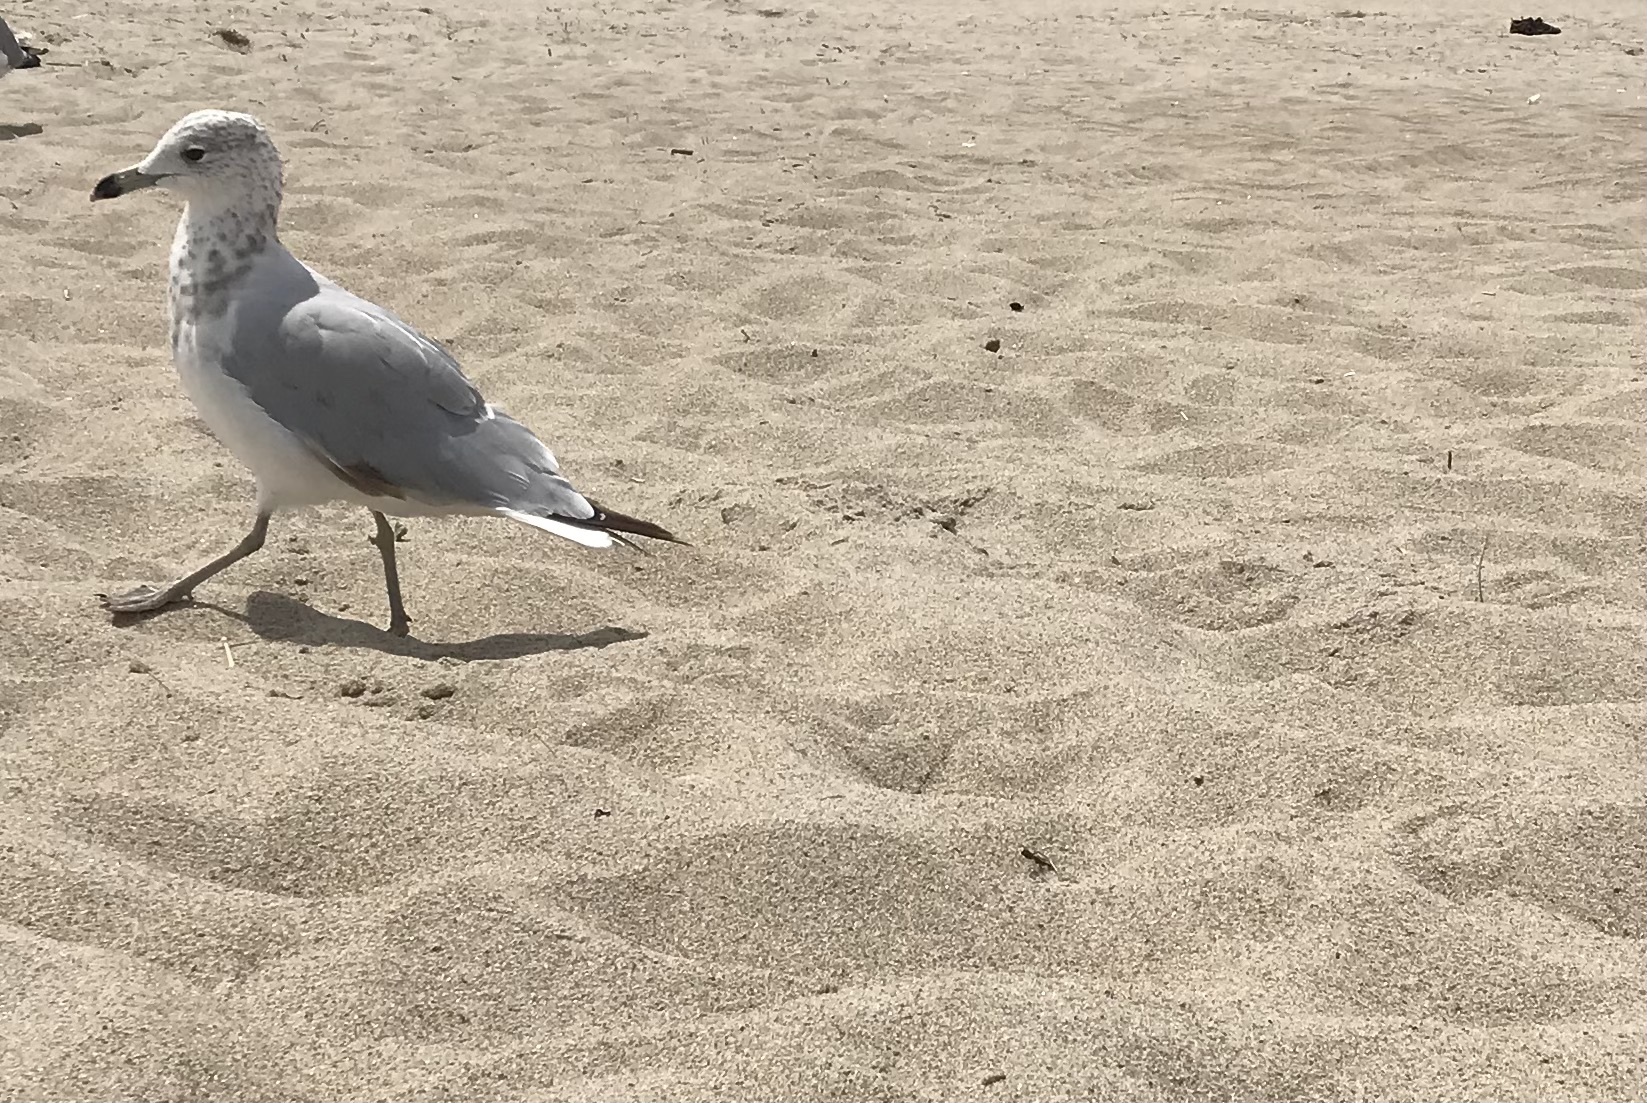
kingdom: Animalia
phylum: Chordata
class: Aves
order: Charadriiformes
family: Laridae
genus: Larus
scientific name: Larus delawarensis
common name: Ring-billed gull
